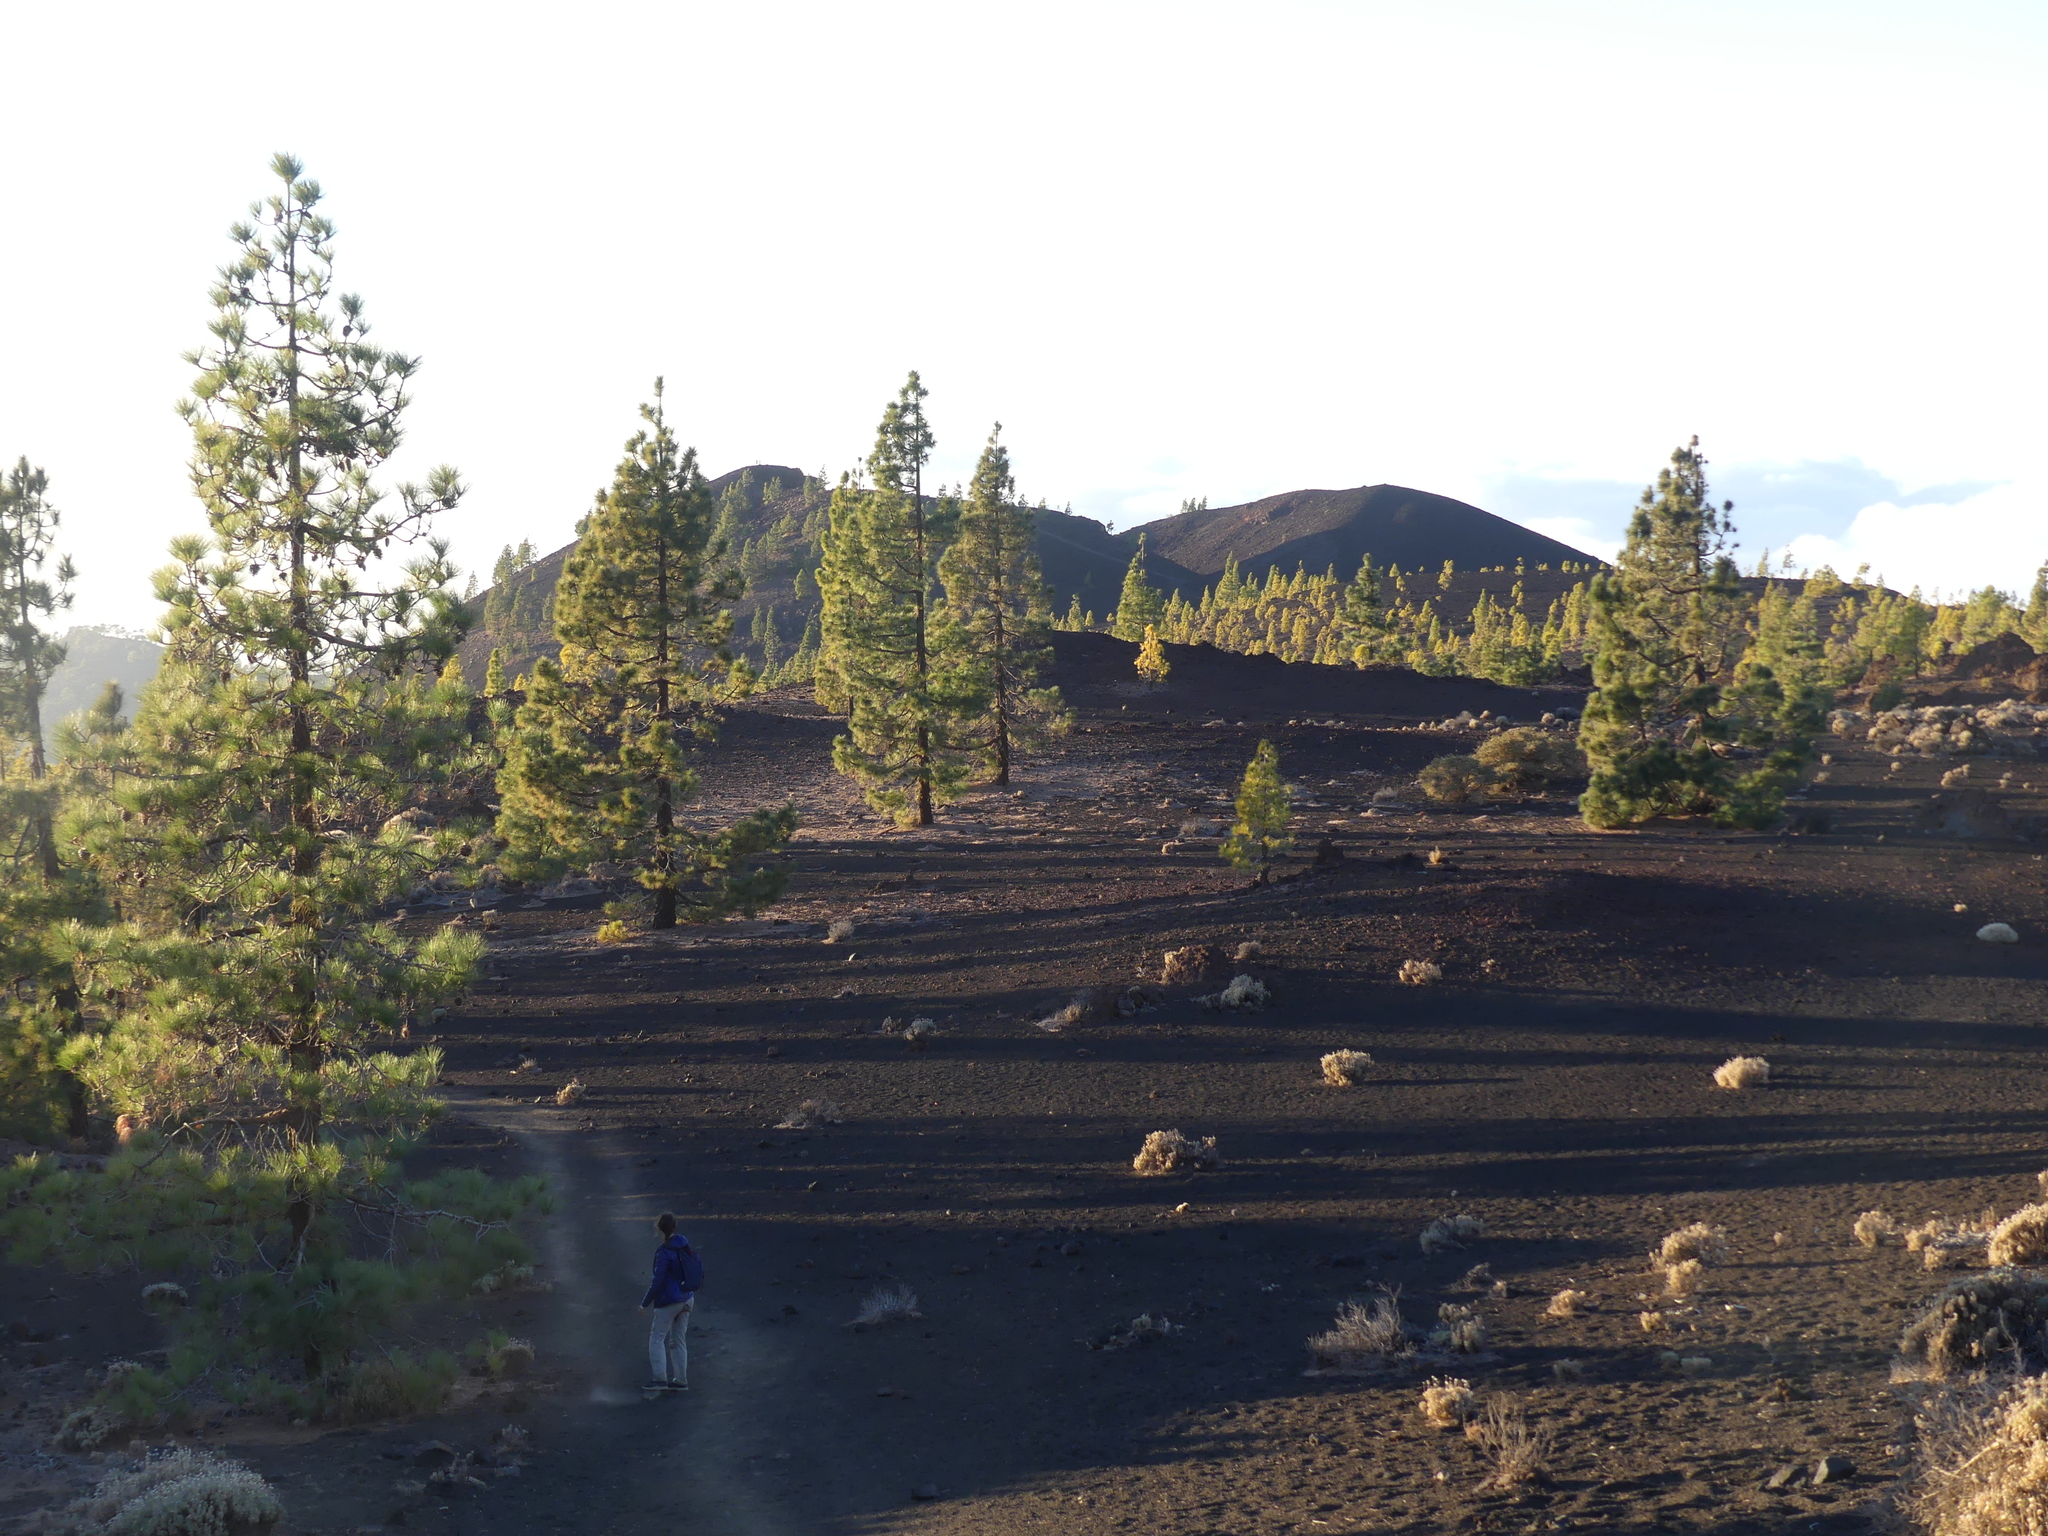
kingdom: Plantae
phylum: Tracheophyta
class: Pinopsida
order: Pinales
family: Pinaceae
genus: Pinus
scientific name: Pinus canariensis
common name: Canary islands pine
